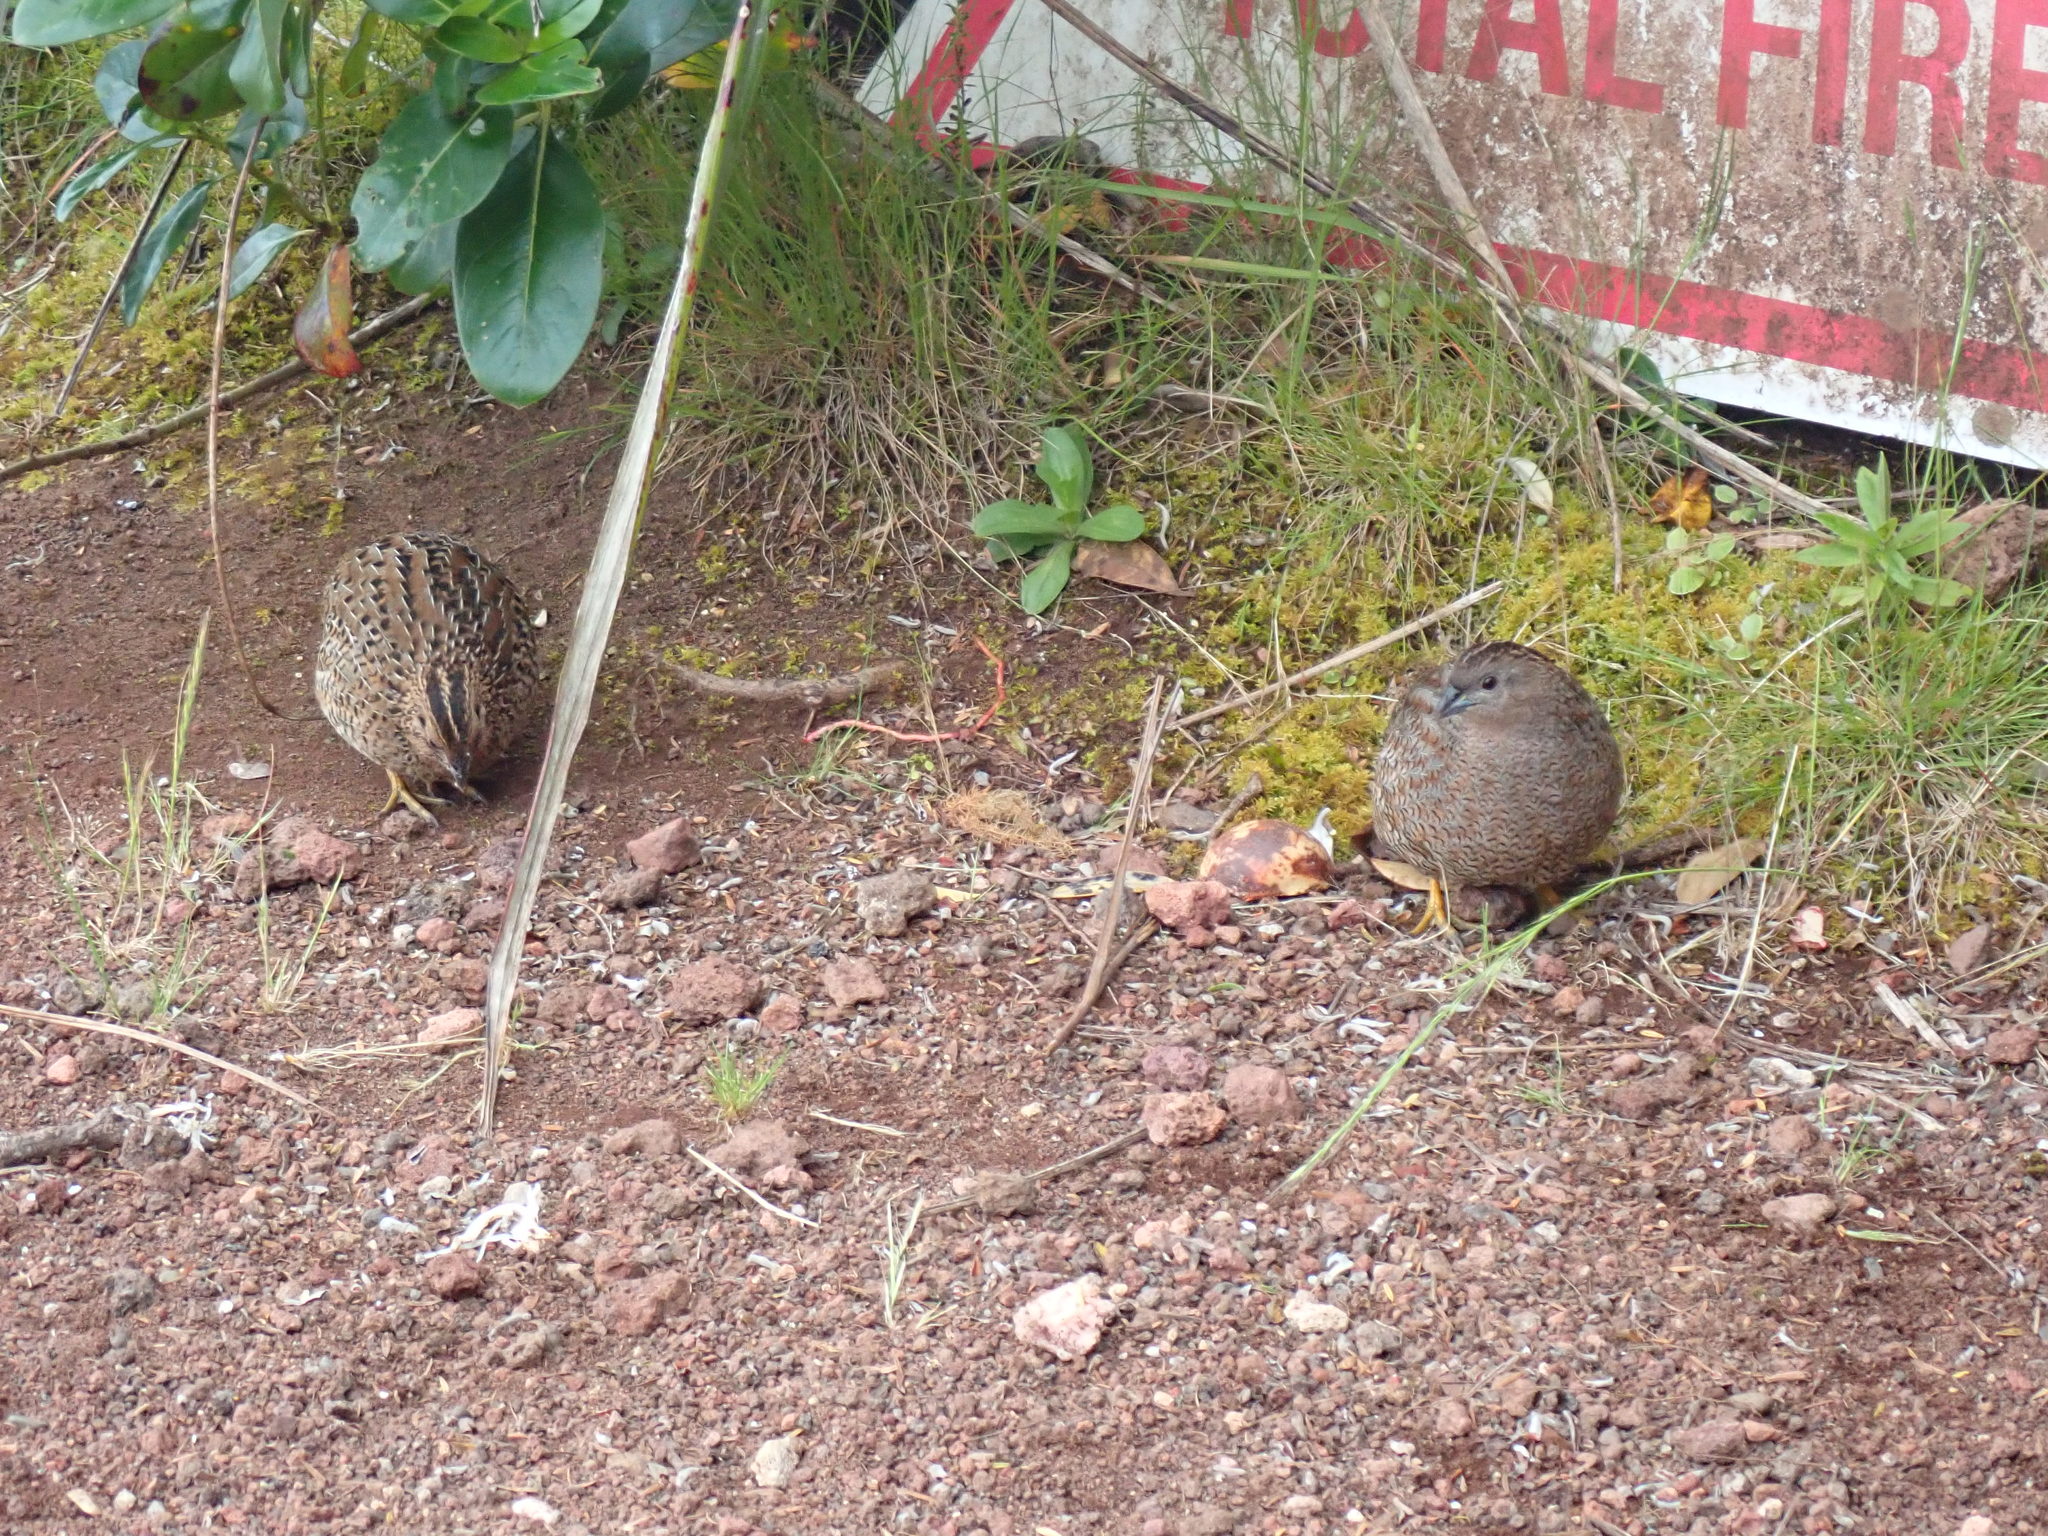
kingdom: Animalia
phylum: Chordata
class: Aves
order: Galliformes
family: Phasianidae
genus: Synoicus
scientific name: Synoicus ypsilophorus
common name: Brown quail
